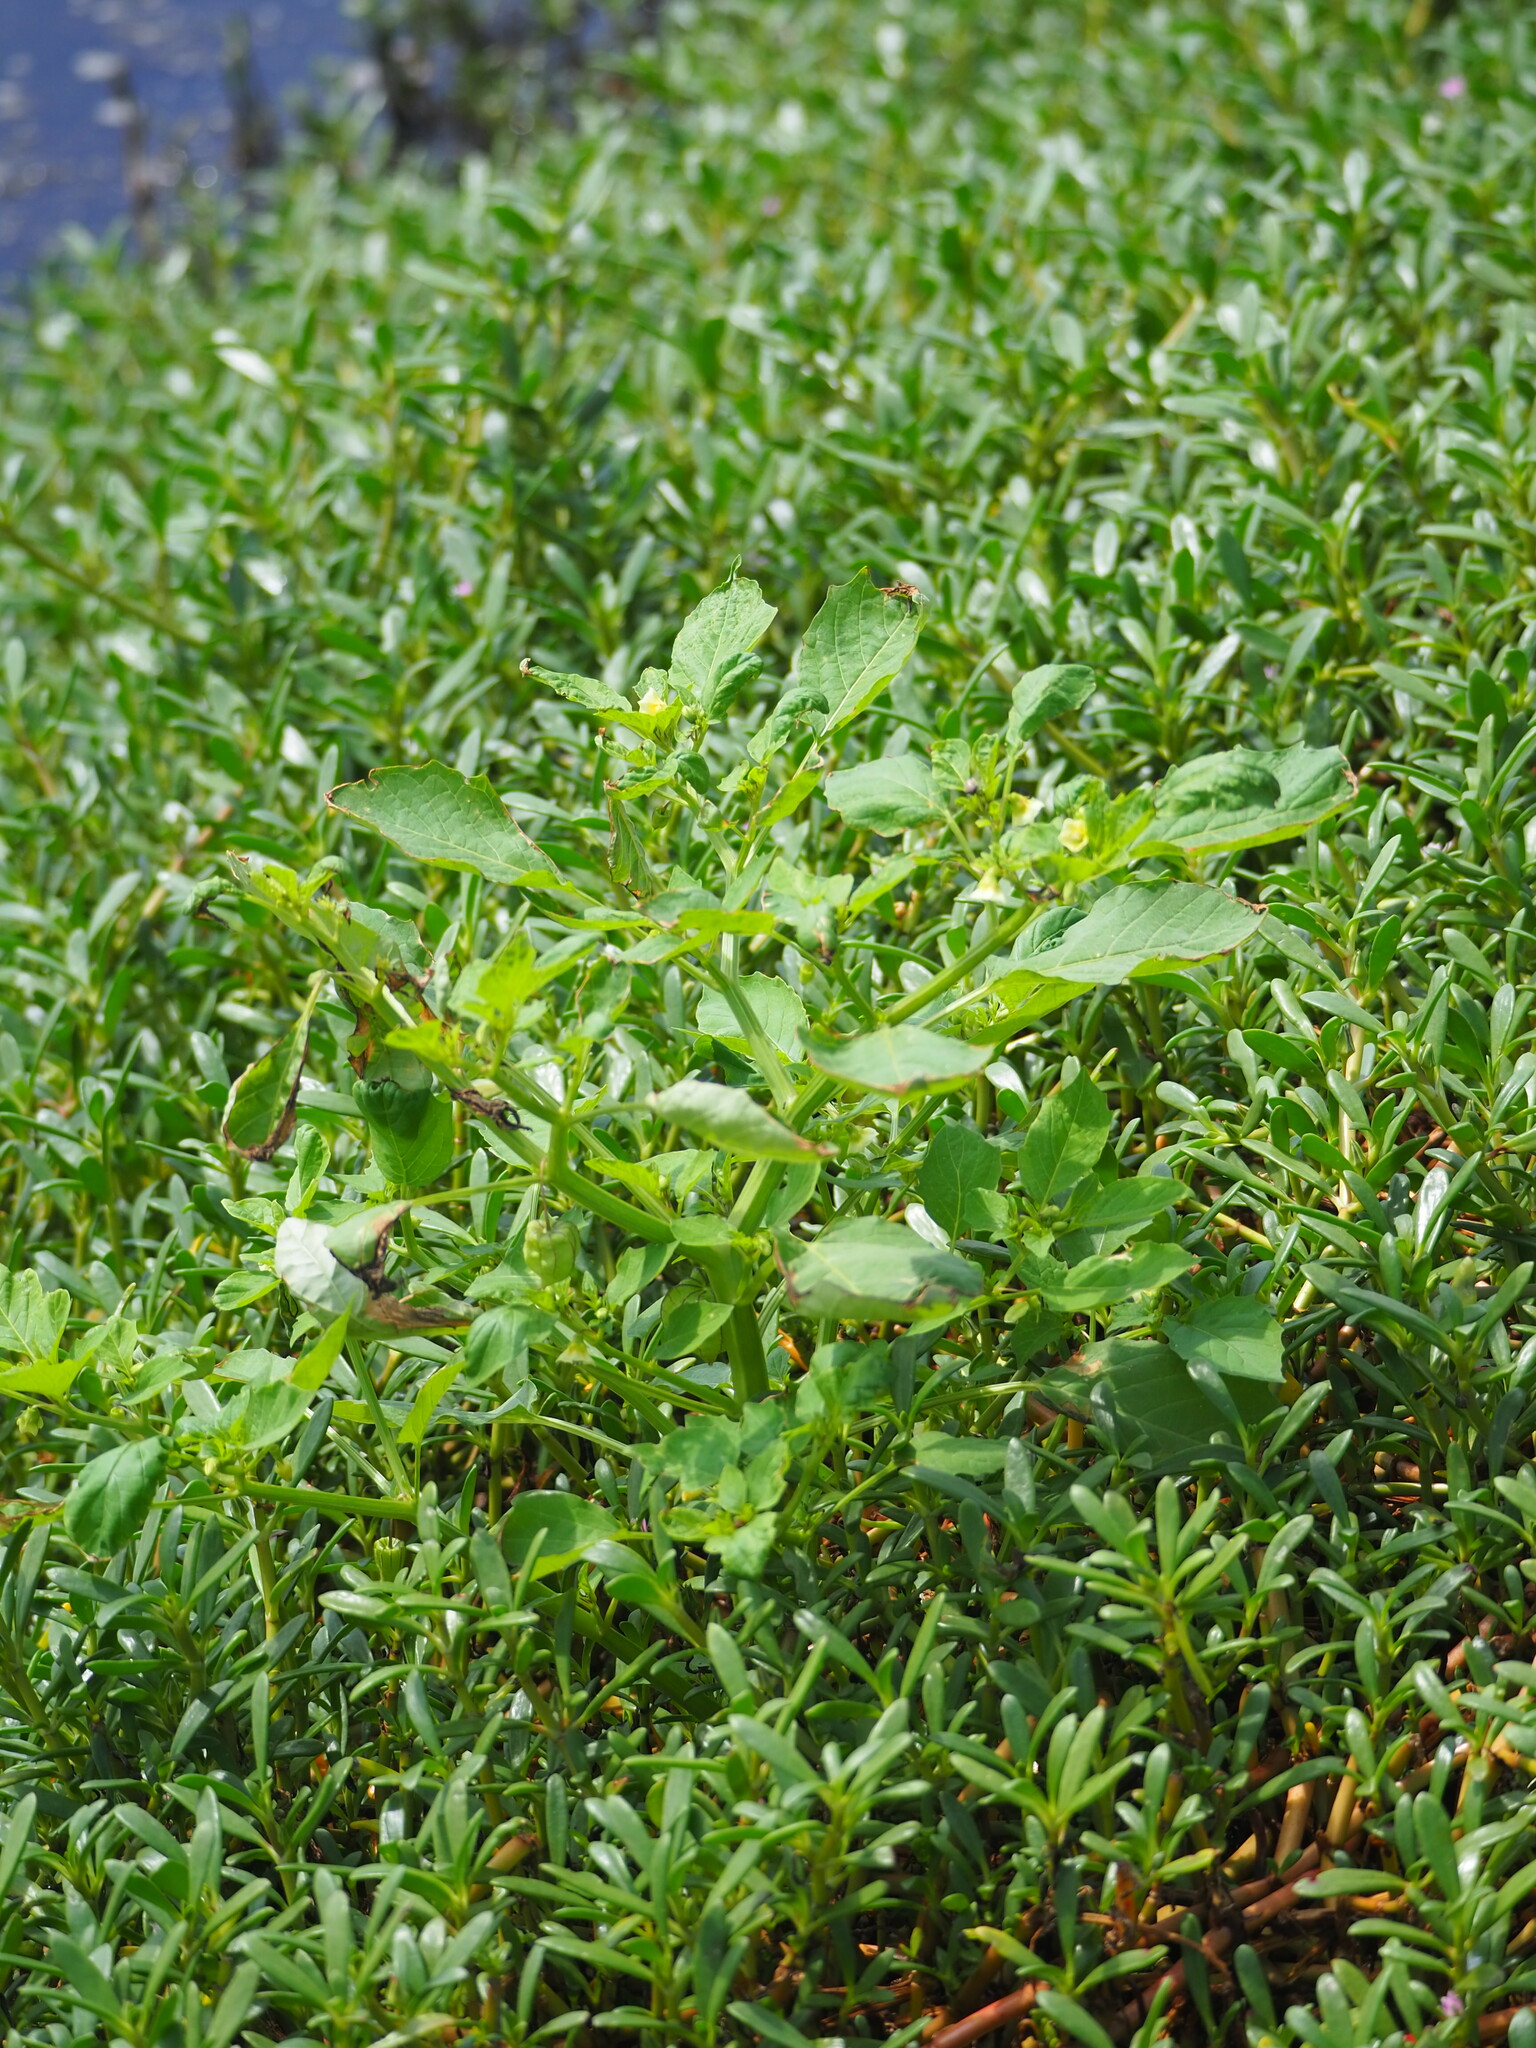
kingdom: Plantae
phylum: Tracheophyta
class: Magnoliopsida
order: Solanales
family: Solanaceae
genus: Physalis
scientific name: Physalis angulata
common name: Angular winter-cherry
